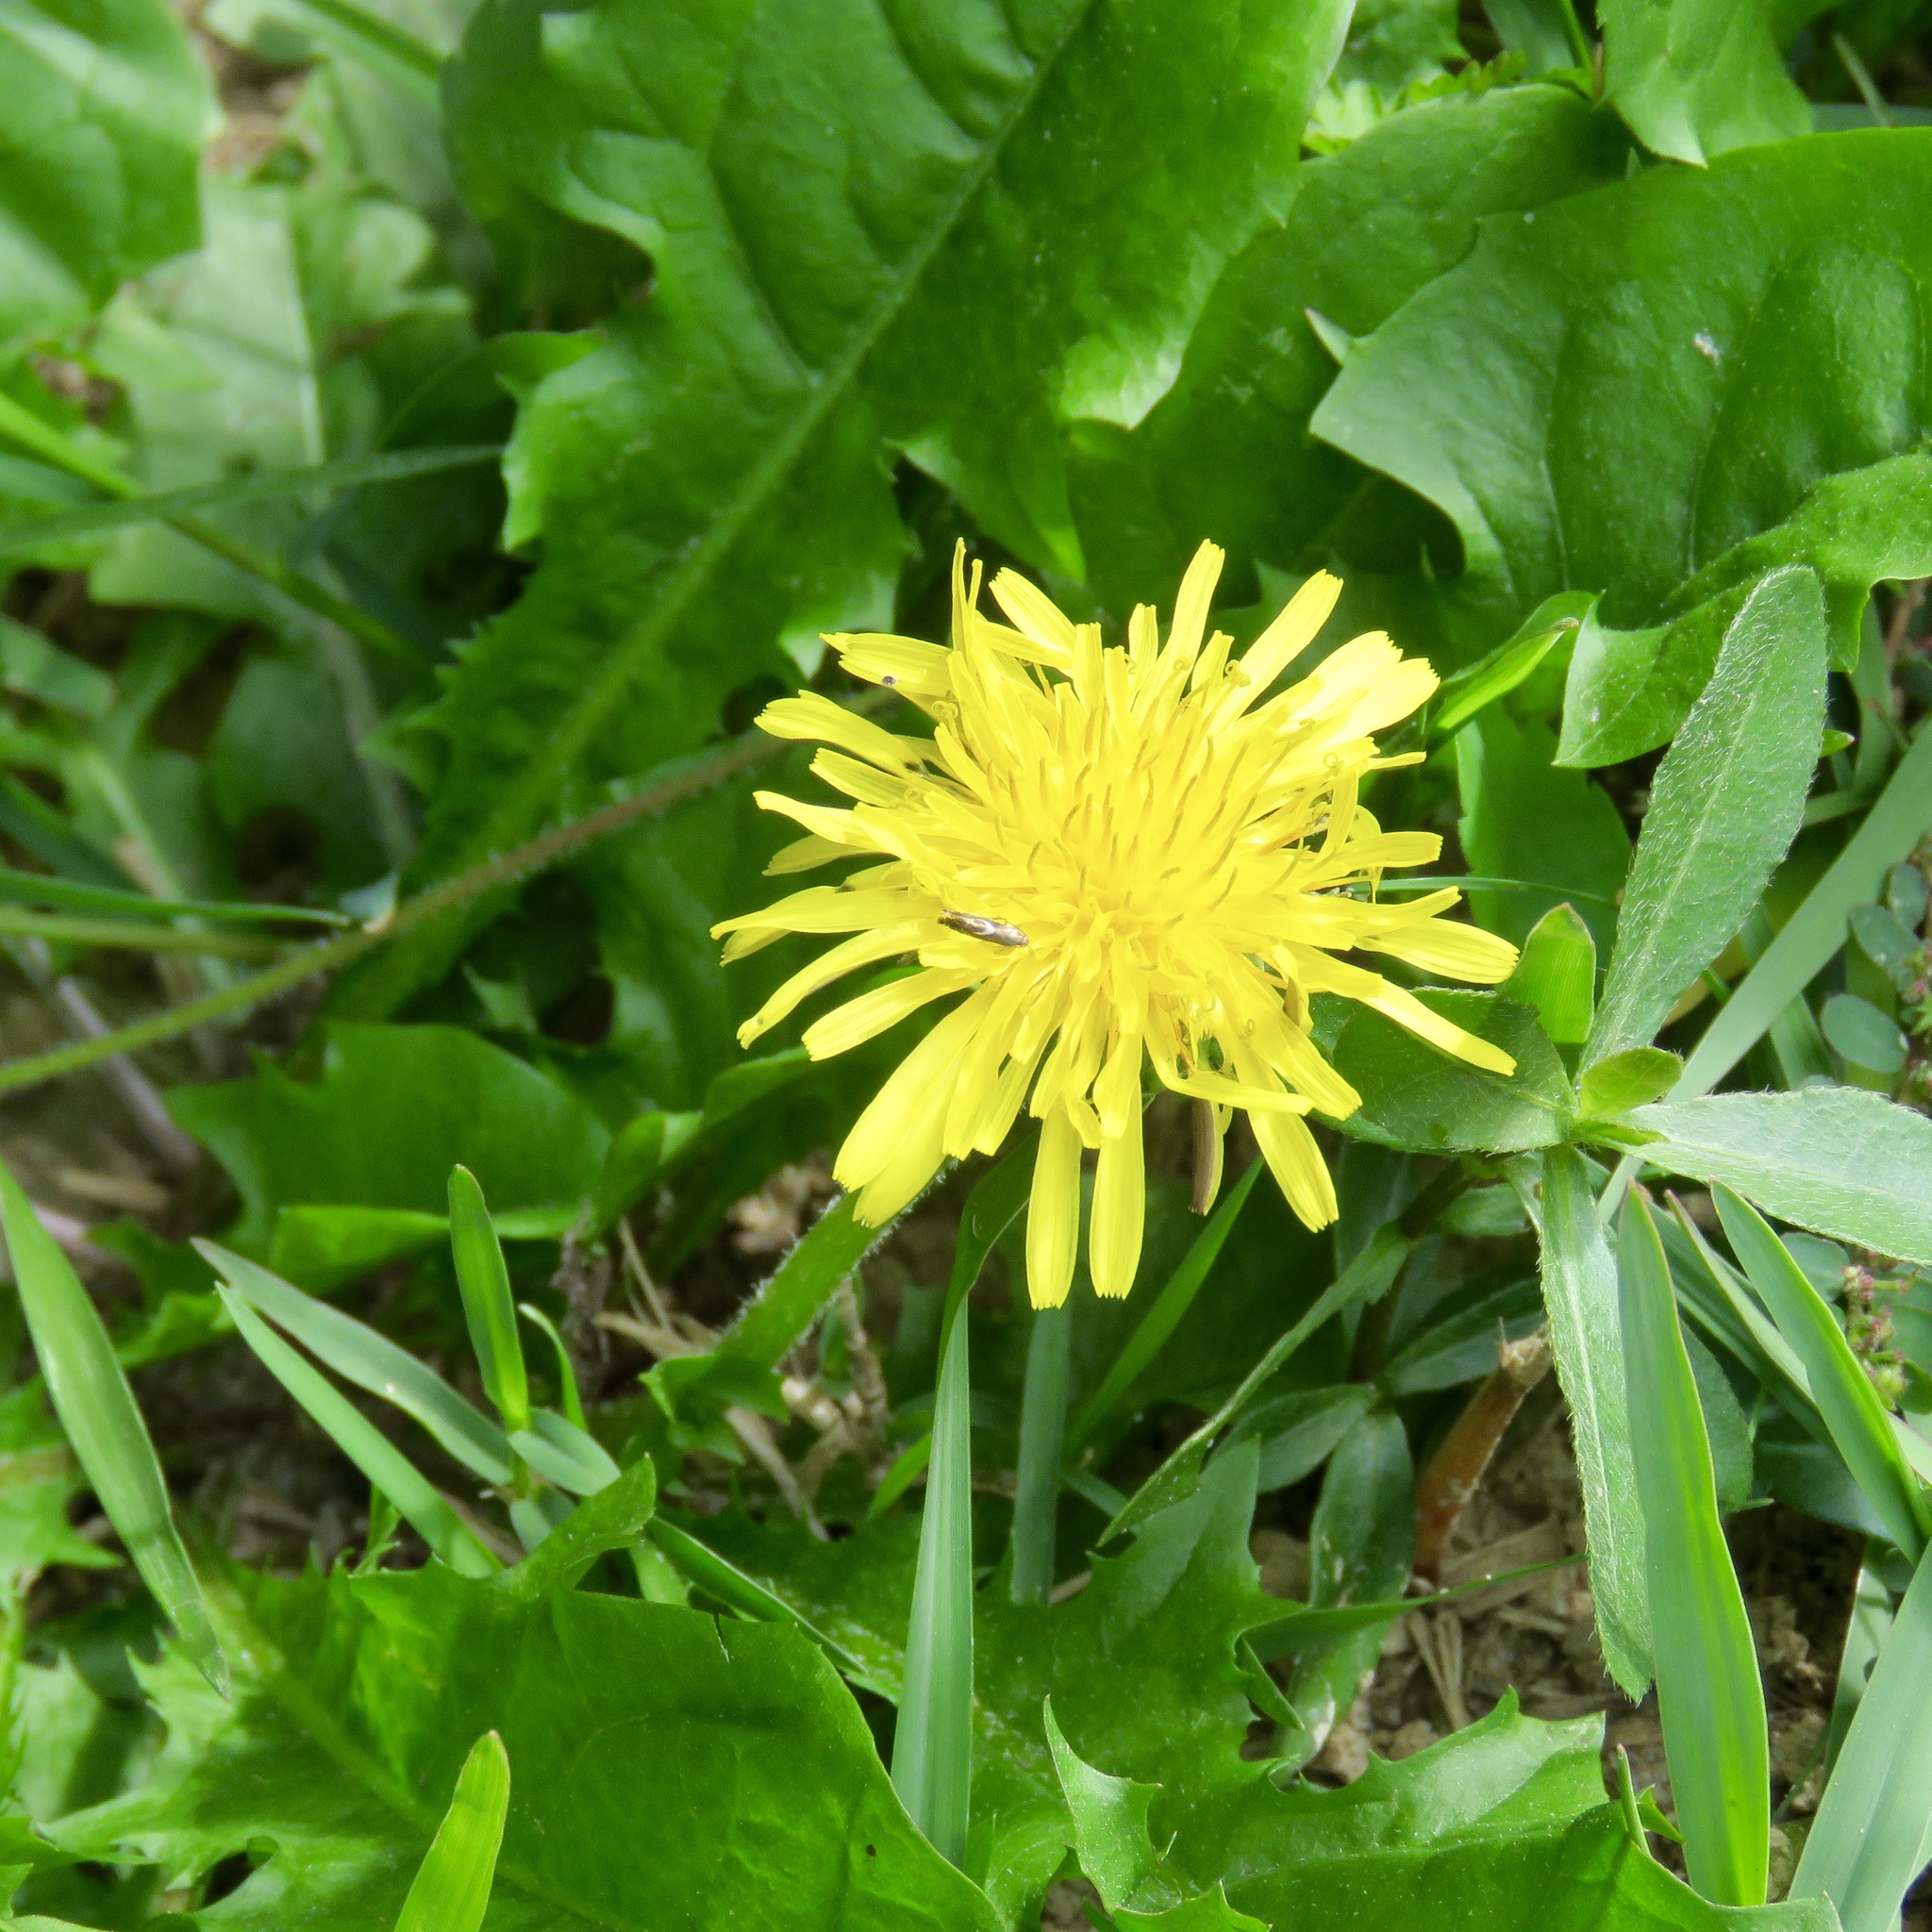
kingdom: Plantae
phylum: Tracheophyta
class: Magnoliopsida
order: Asterales
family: Asteraceae
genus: Taraxacum
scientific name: Taraxacum officinale
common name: Common dandelion
